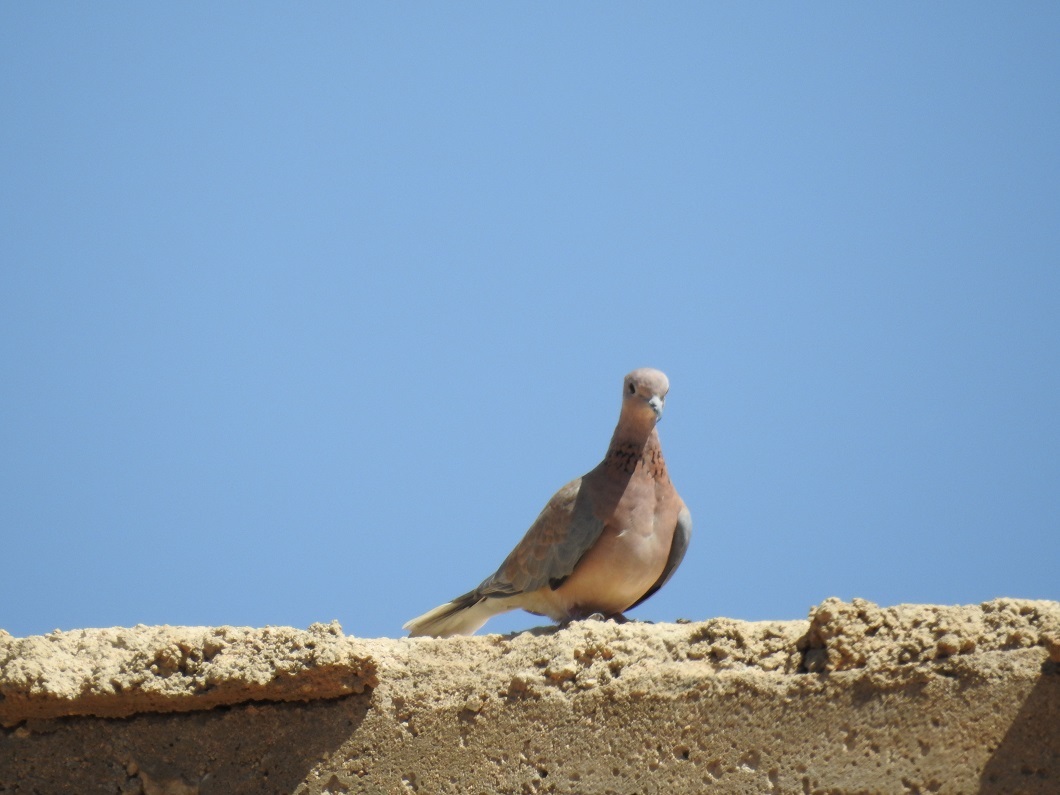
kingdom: Animalia
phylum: Chordata
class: Aves
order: Columbiformes
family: Columbidae
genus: Spilopelia
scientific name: Spilopelia senegalensis
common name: Laughing dove
